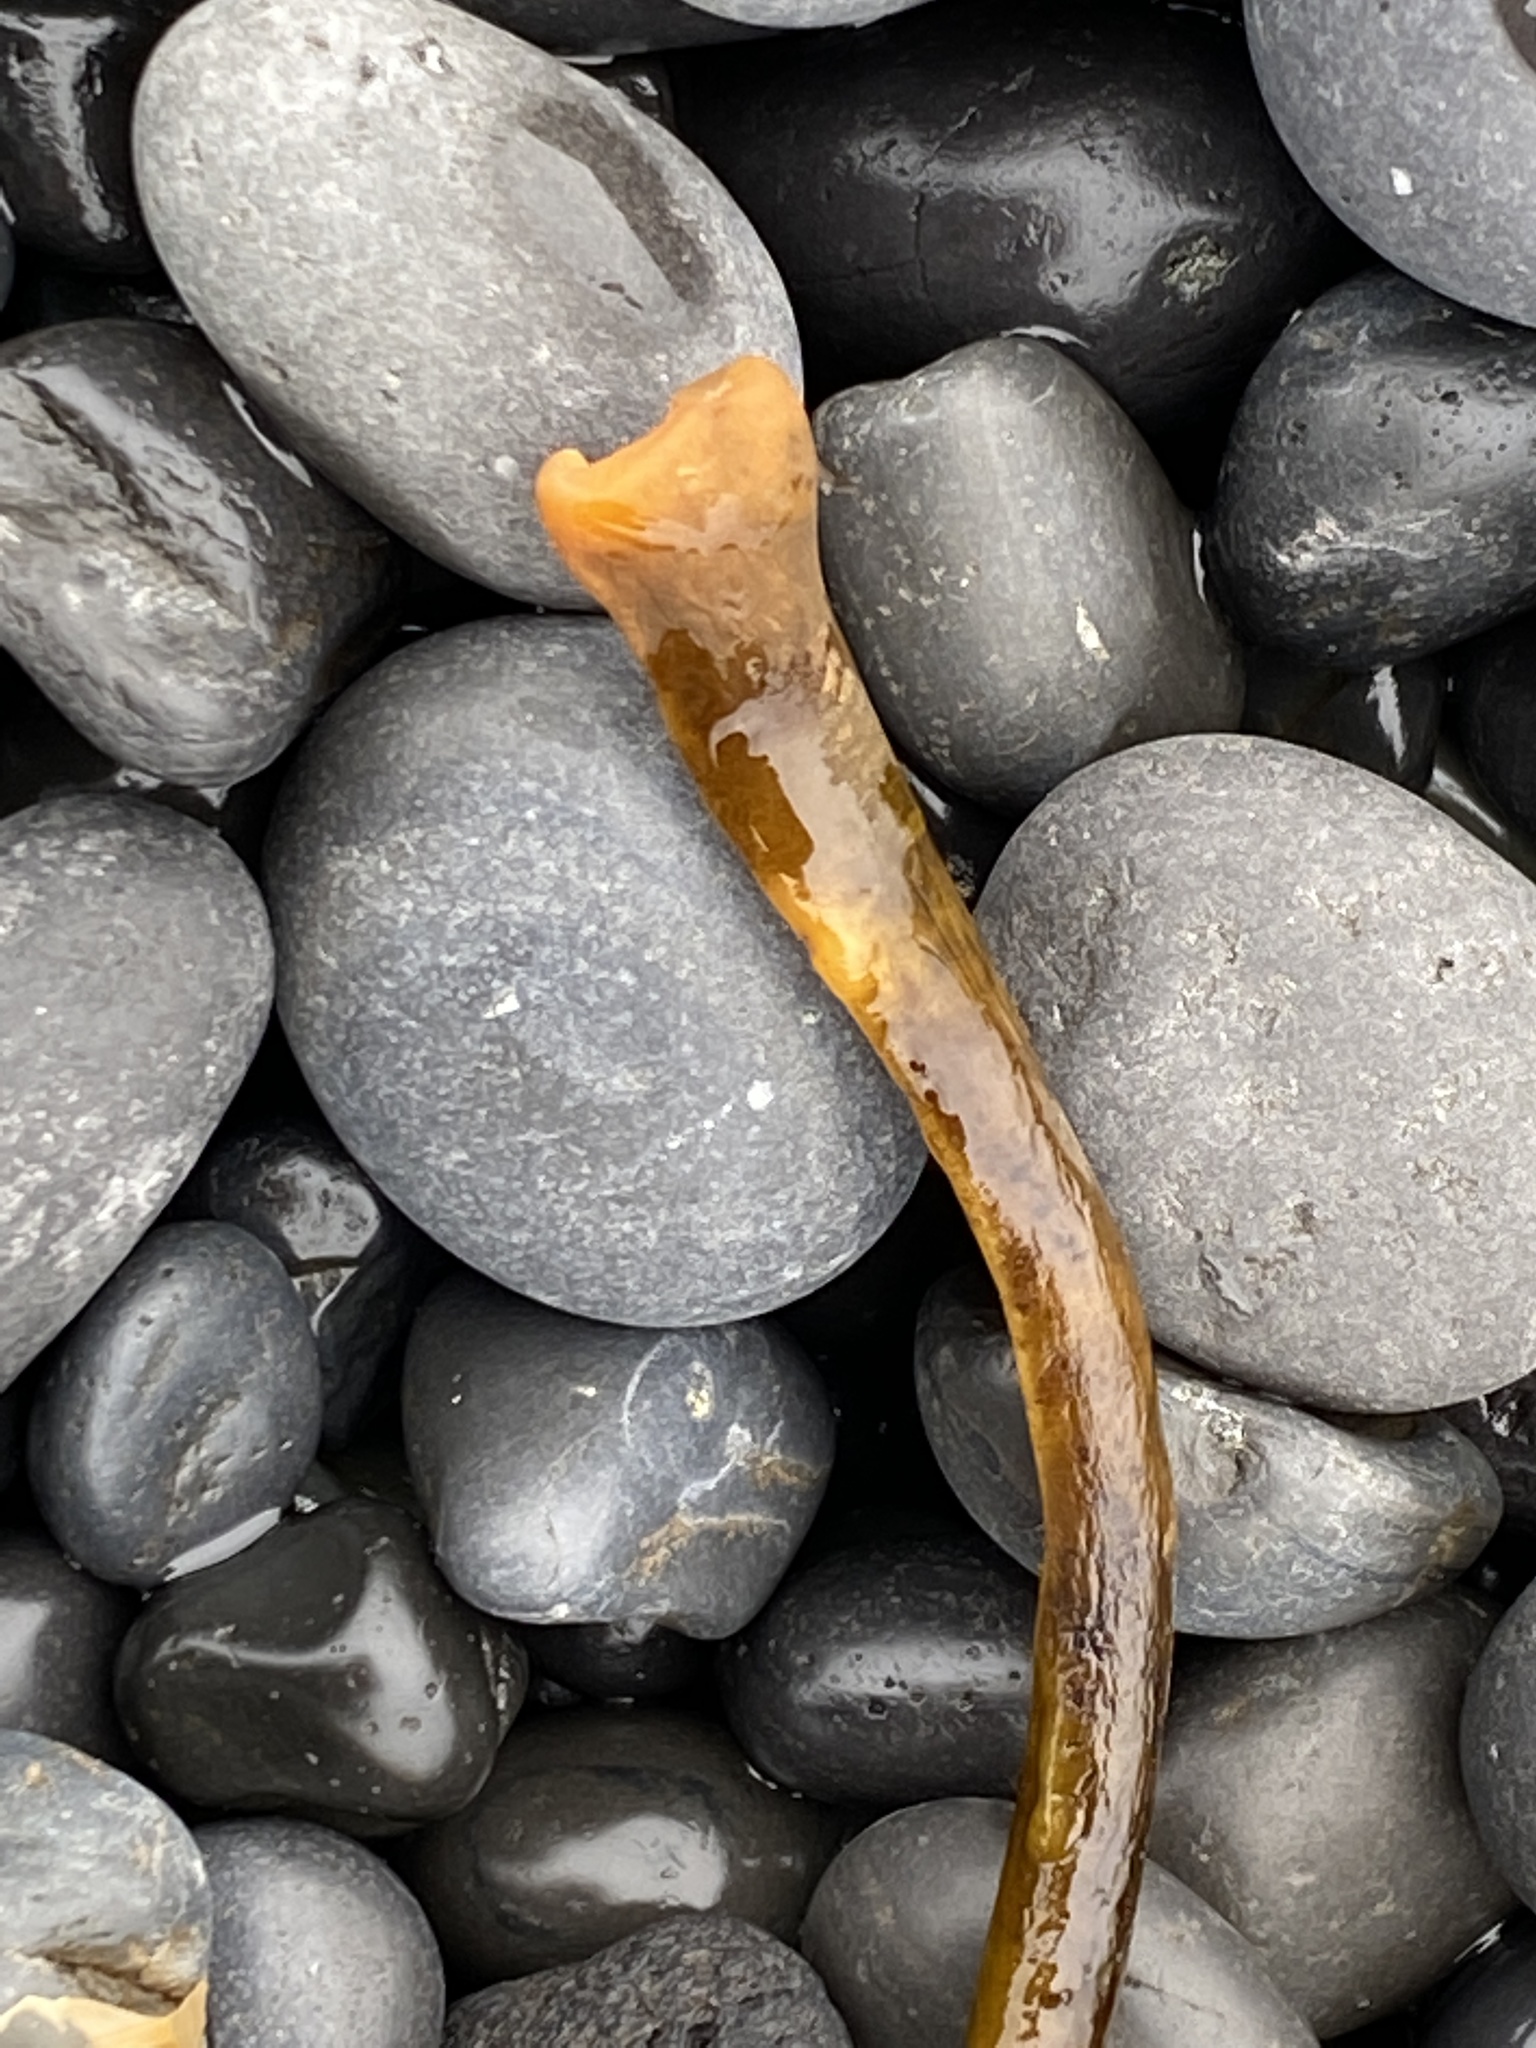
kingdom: Chromista
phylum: Ochrophyta
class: Phaeophyceae
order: Laminariales
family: Alariaceae
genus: Alaria
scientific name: Alaria esculenta
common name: Dabberlocks
